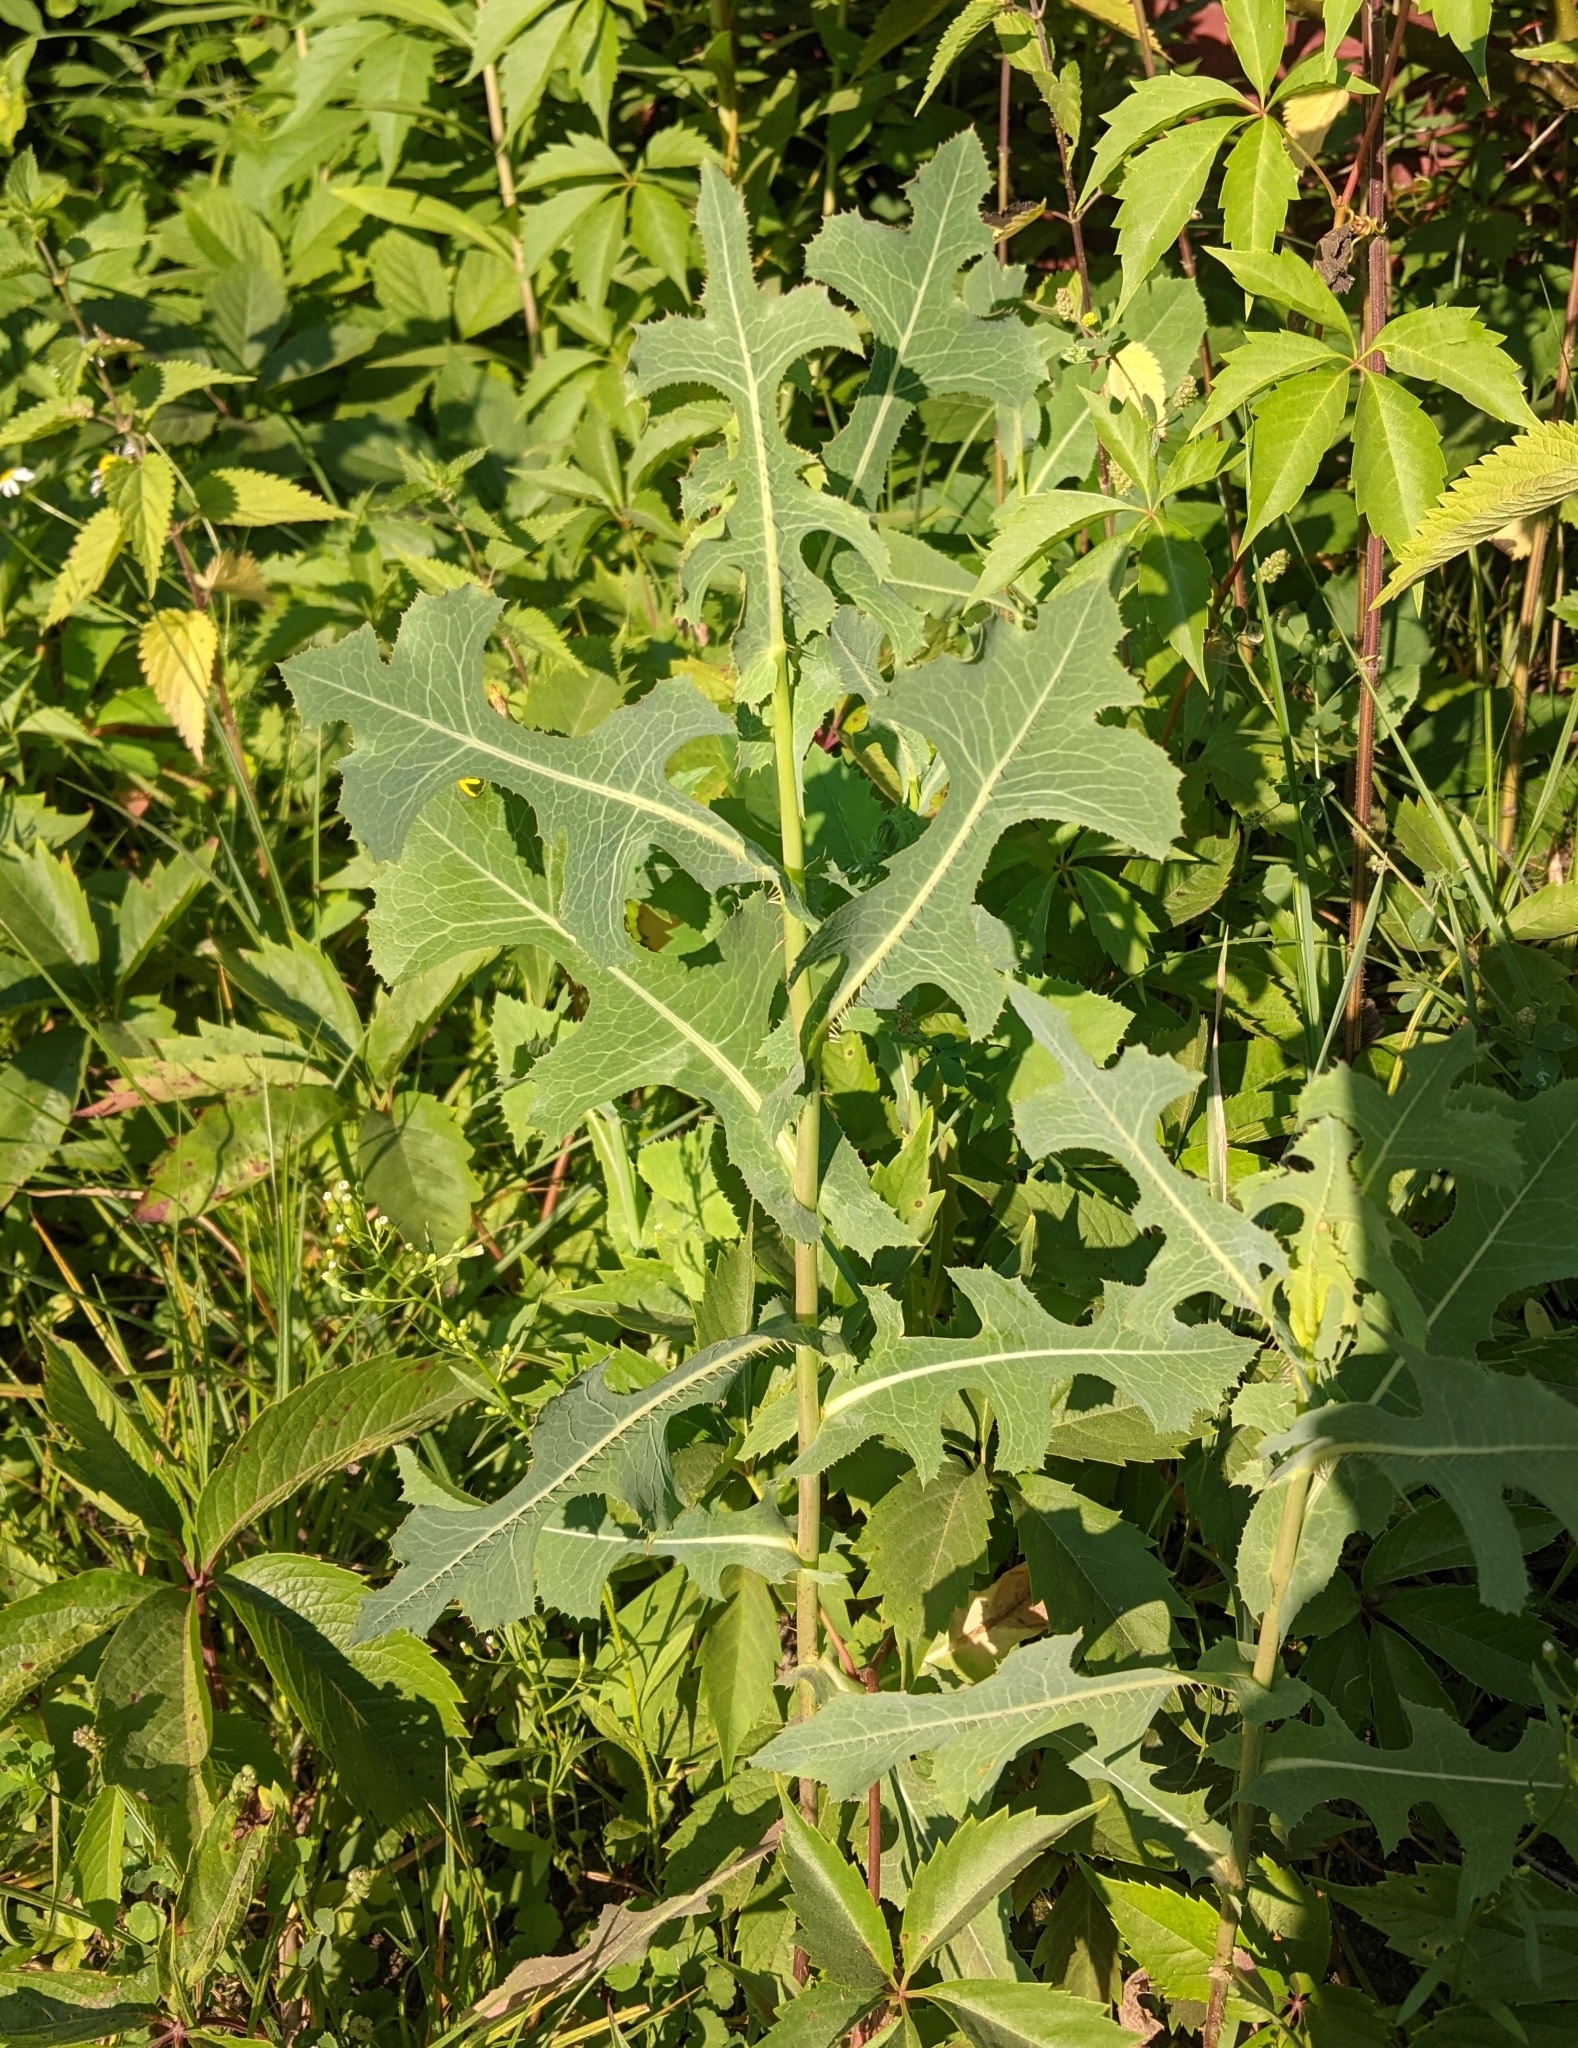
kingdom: Plantae
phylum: Tracheophyta
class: Magnoliopsida
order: Asterales
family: Asteraceae
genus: Lactuca
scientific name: Lactuca serriola
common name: Prickly lettuce
